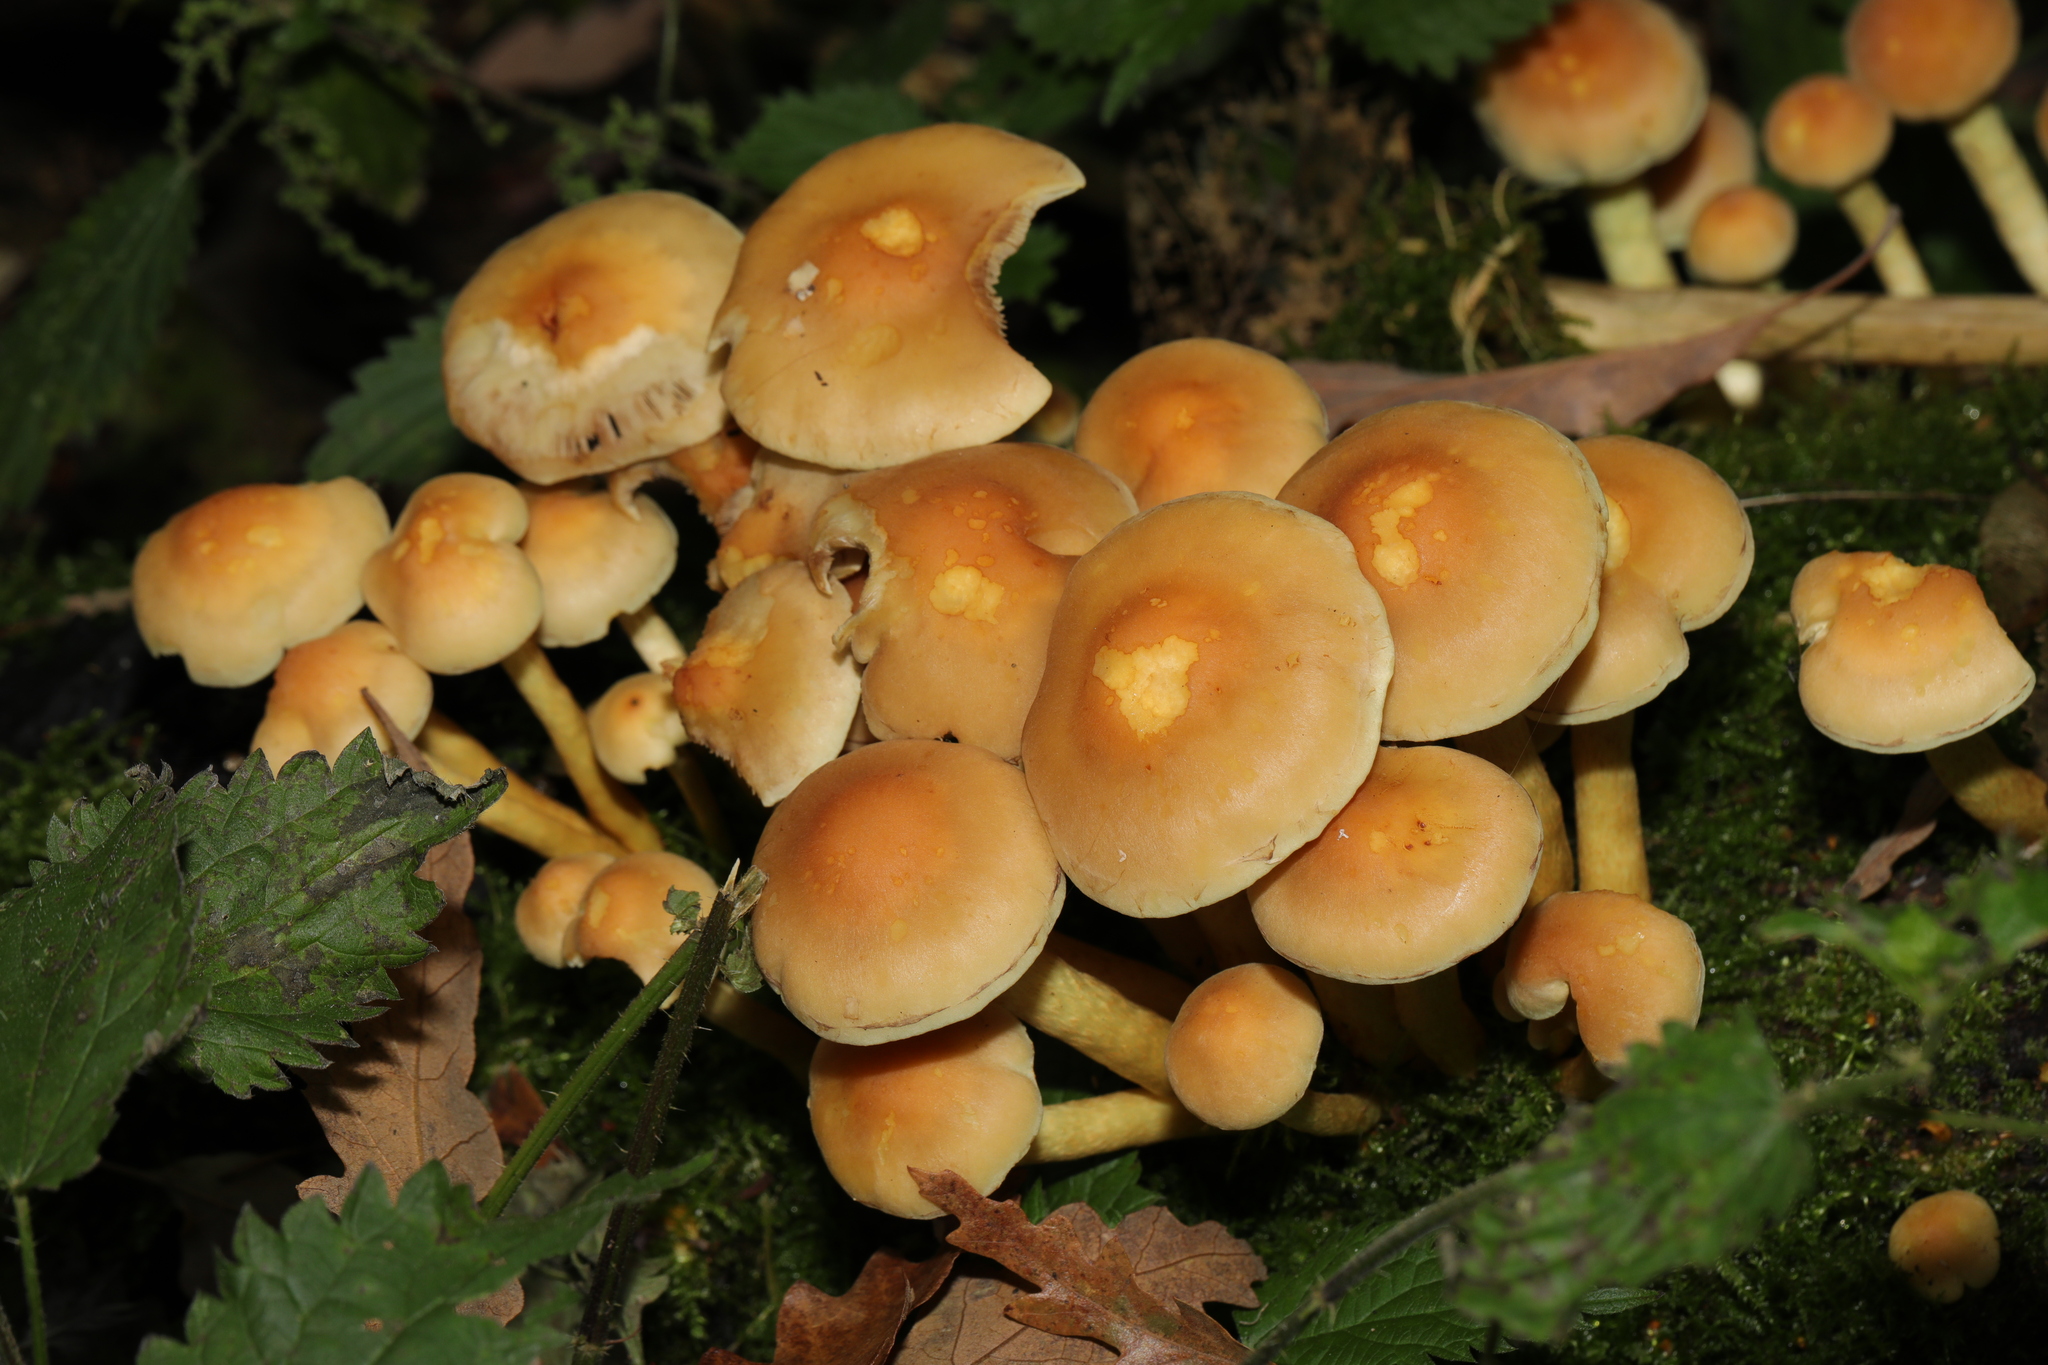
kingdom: Fungi
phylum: Basidiomycota
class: Agaricomycetes
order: Agaricales
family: Strophariaceae
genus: Hypholoma
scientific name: Hypholoma fasciculare
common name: Sulphur tuft
